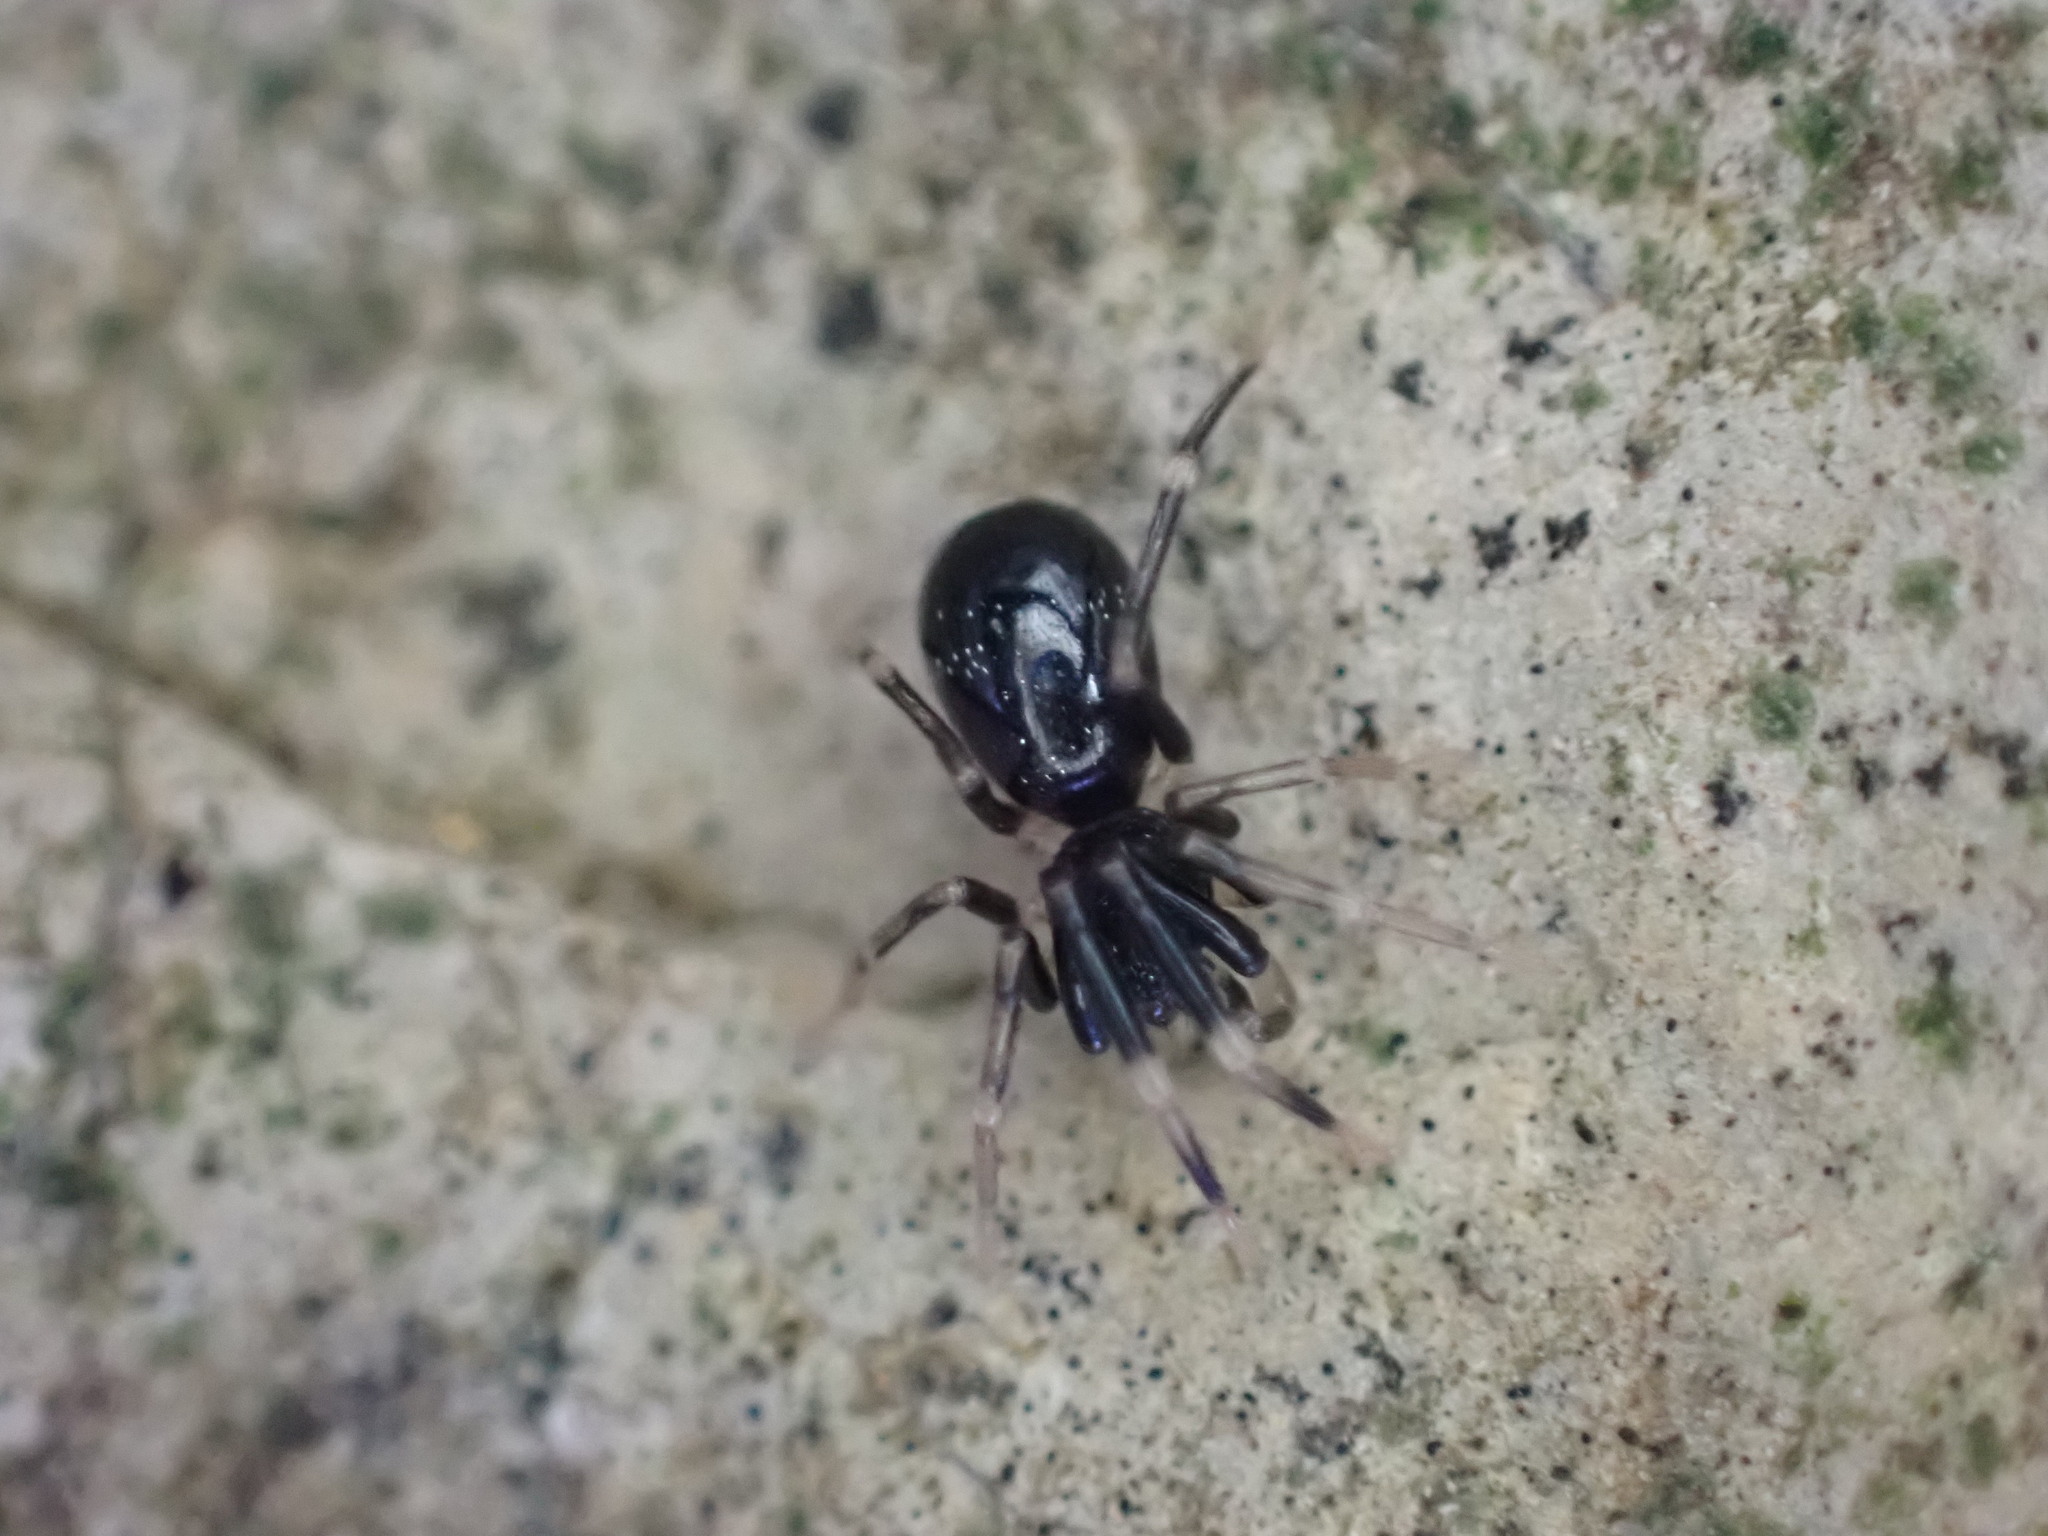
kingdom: Animalia
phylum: Arthropoda
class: Arachnida
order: Araneae
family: Phrurolithidae
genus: Liophrurillus
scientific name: Liophrurillus flavitarsis
